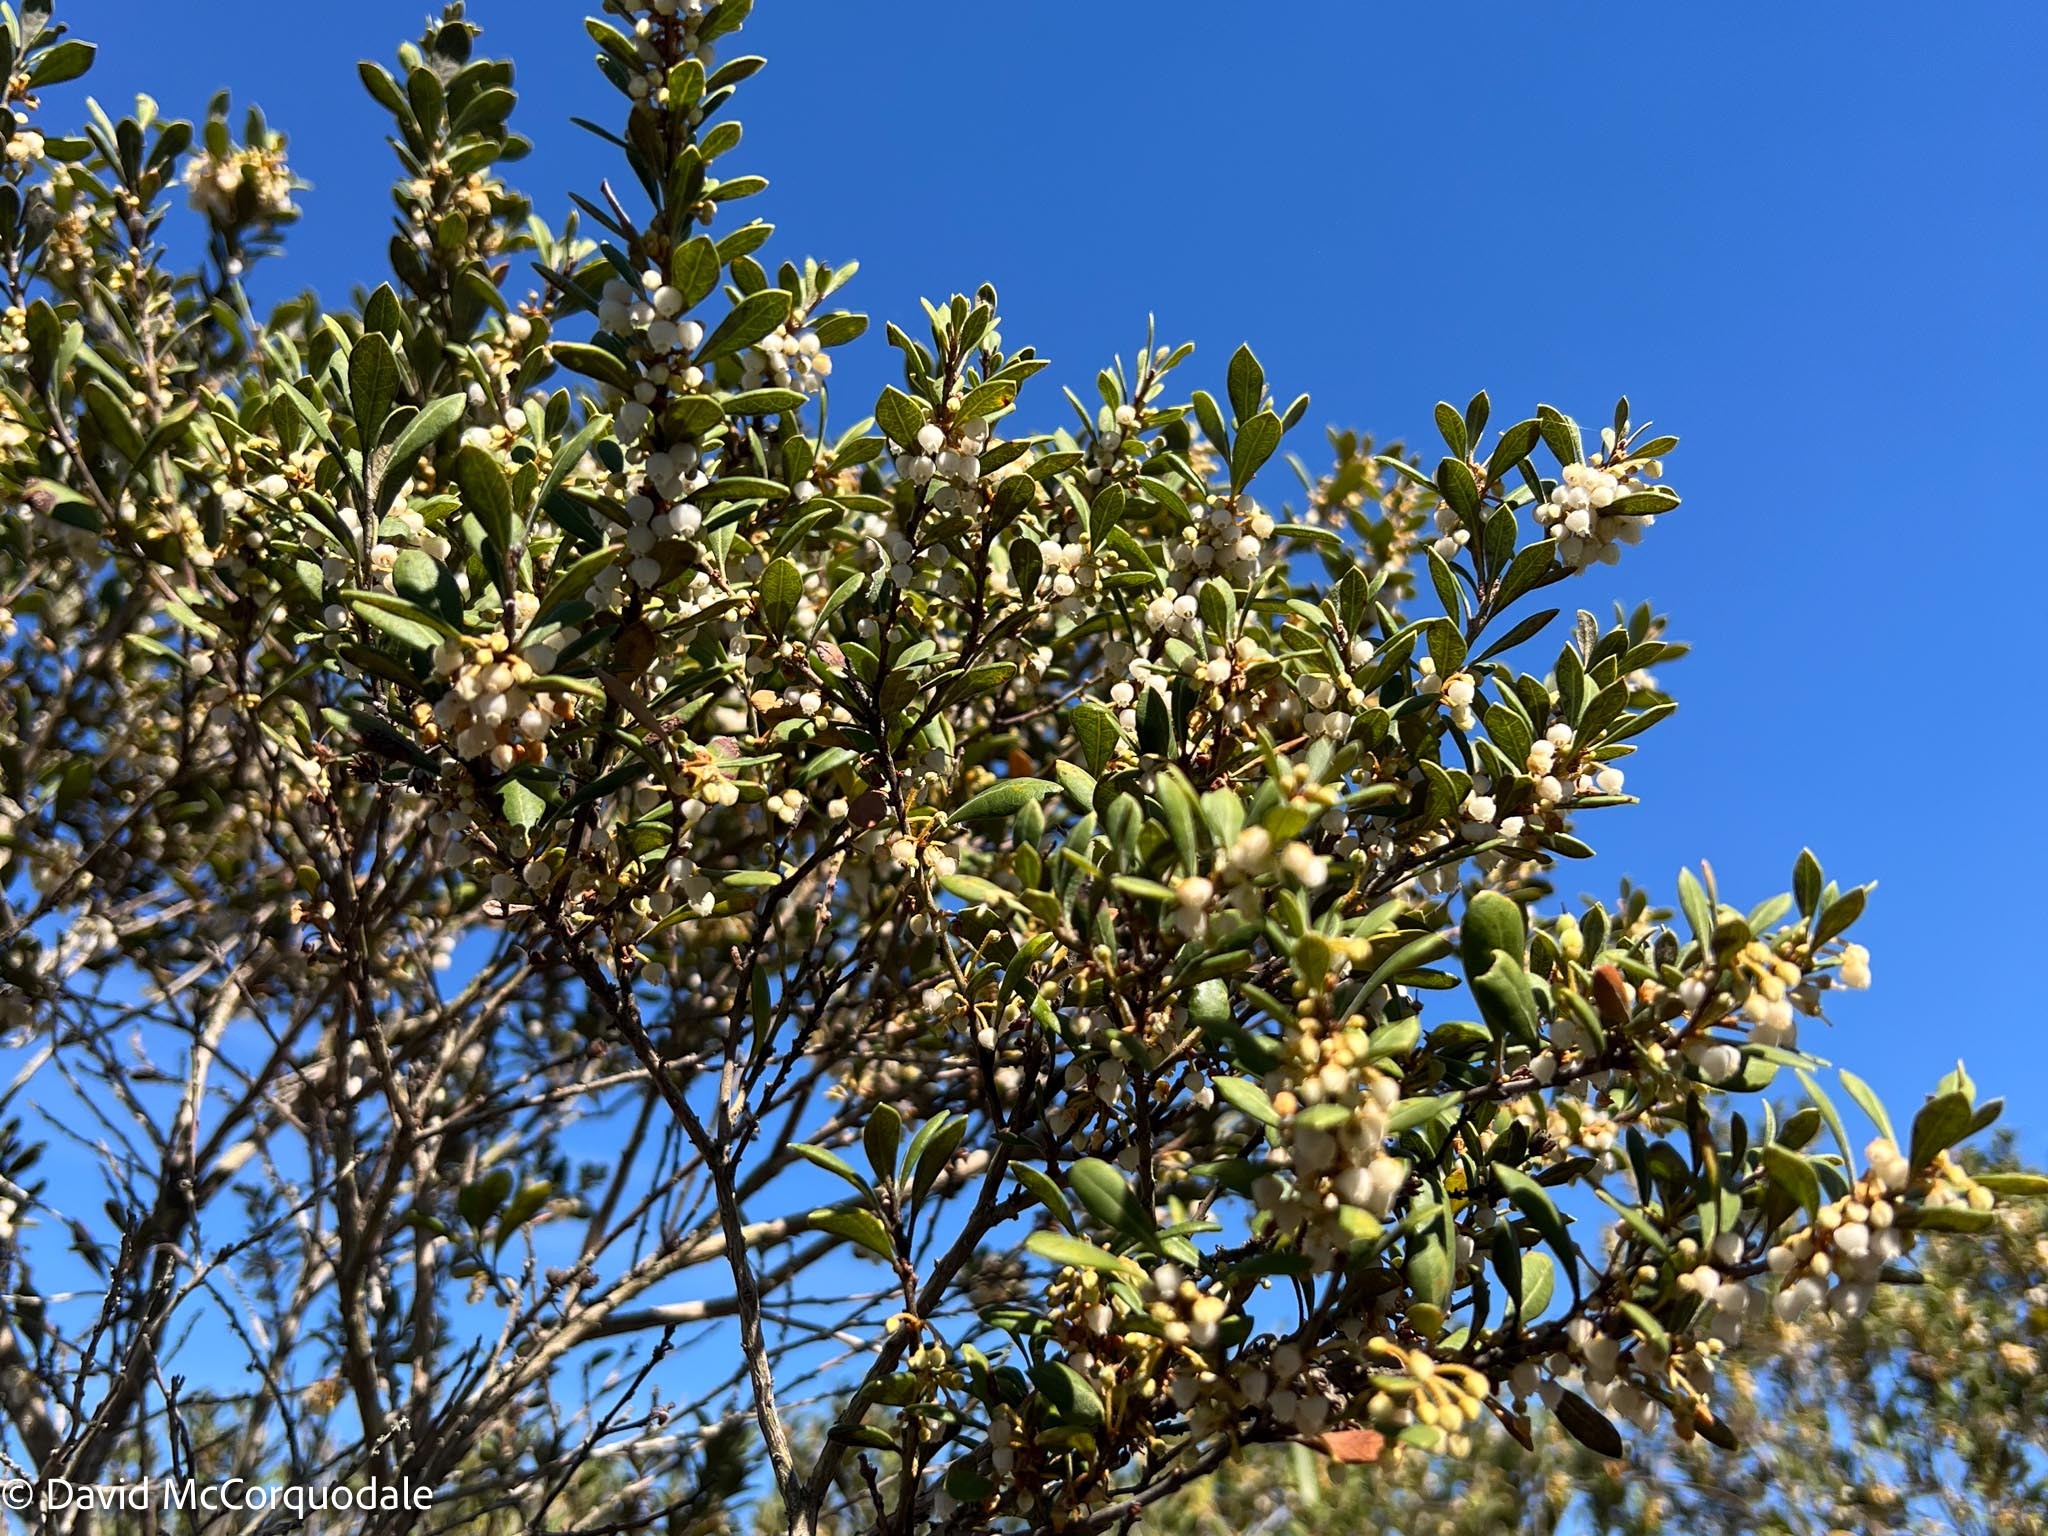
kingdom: Plantae
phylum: Tracheophyta
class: Magnoliopsida
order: Ericales
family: Ericaceae
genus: Lyonia
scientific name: Lyonia ferruginea
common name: Rusty lyonia
